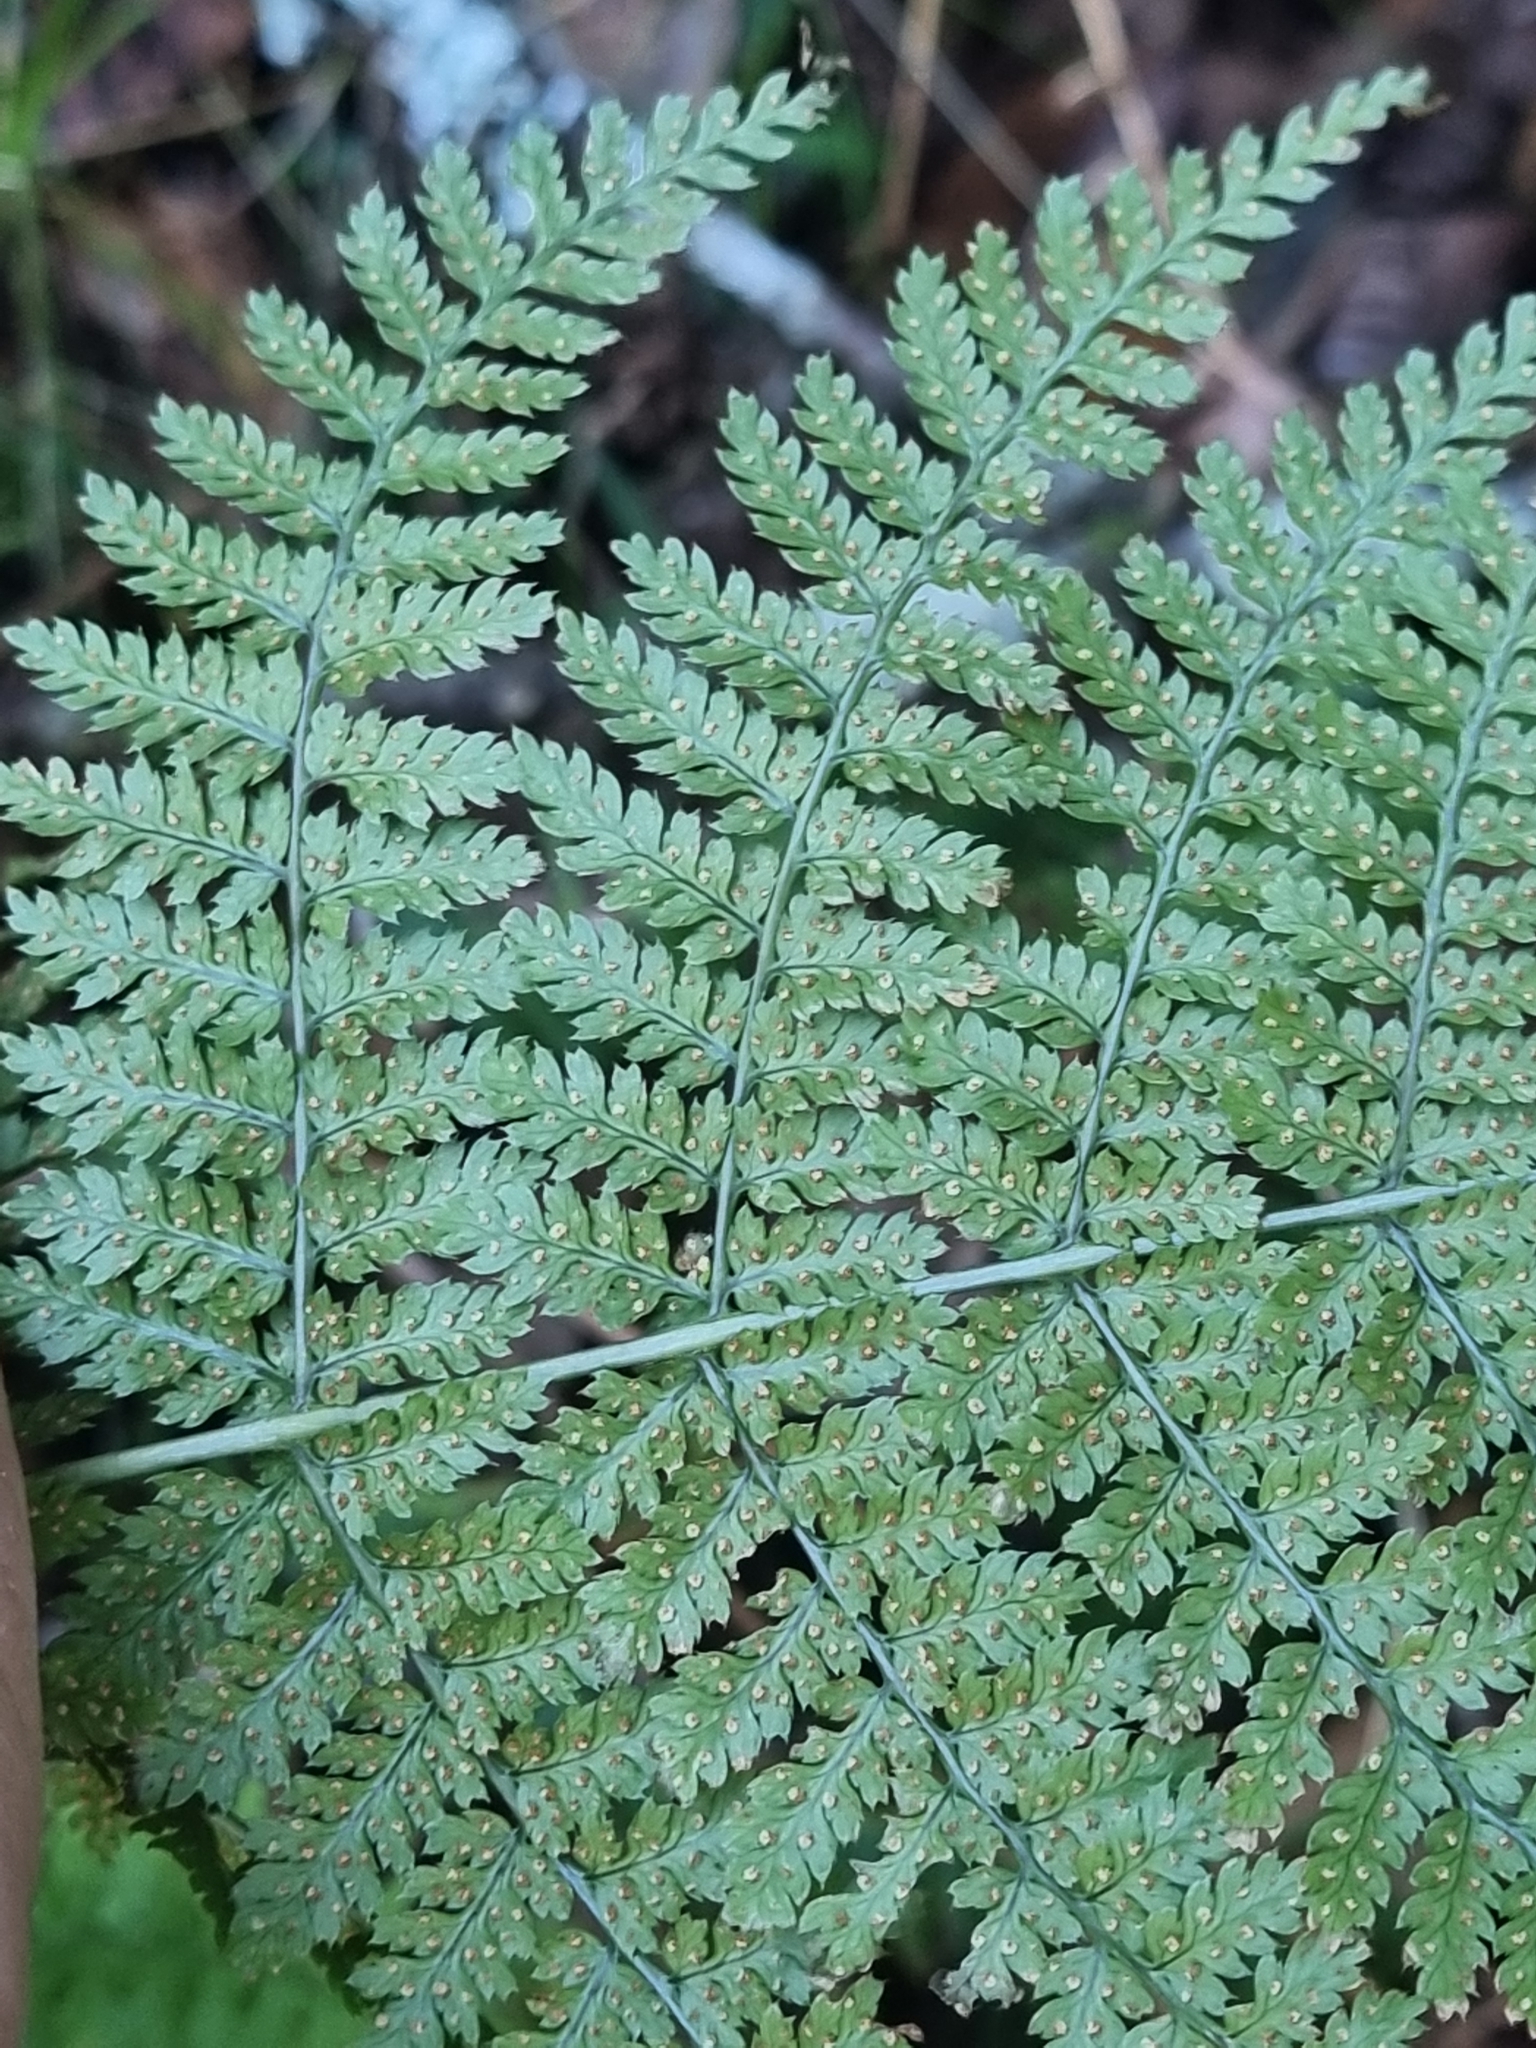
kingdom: Plantae
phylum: Tracheophyta
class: Polypodiopsida
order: Polypodiales
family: Dryopteridaceae
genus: Dryopteris
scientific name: Dryopteris intermedia
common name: Evergreen wood fern
